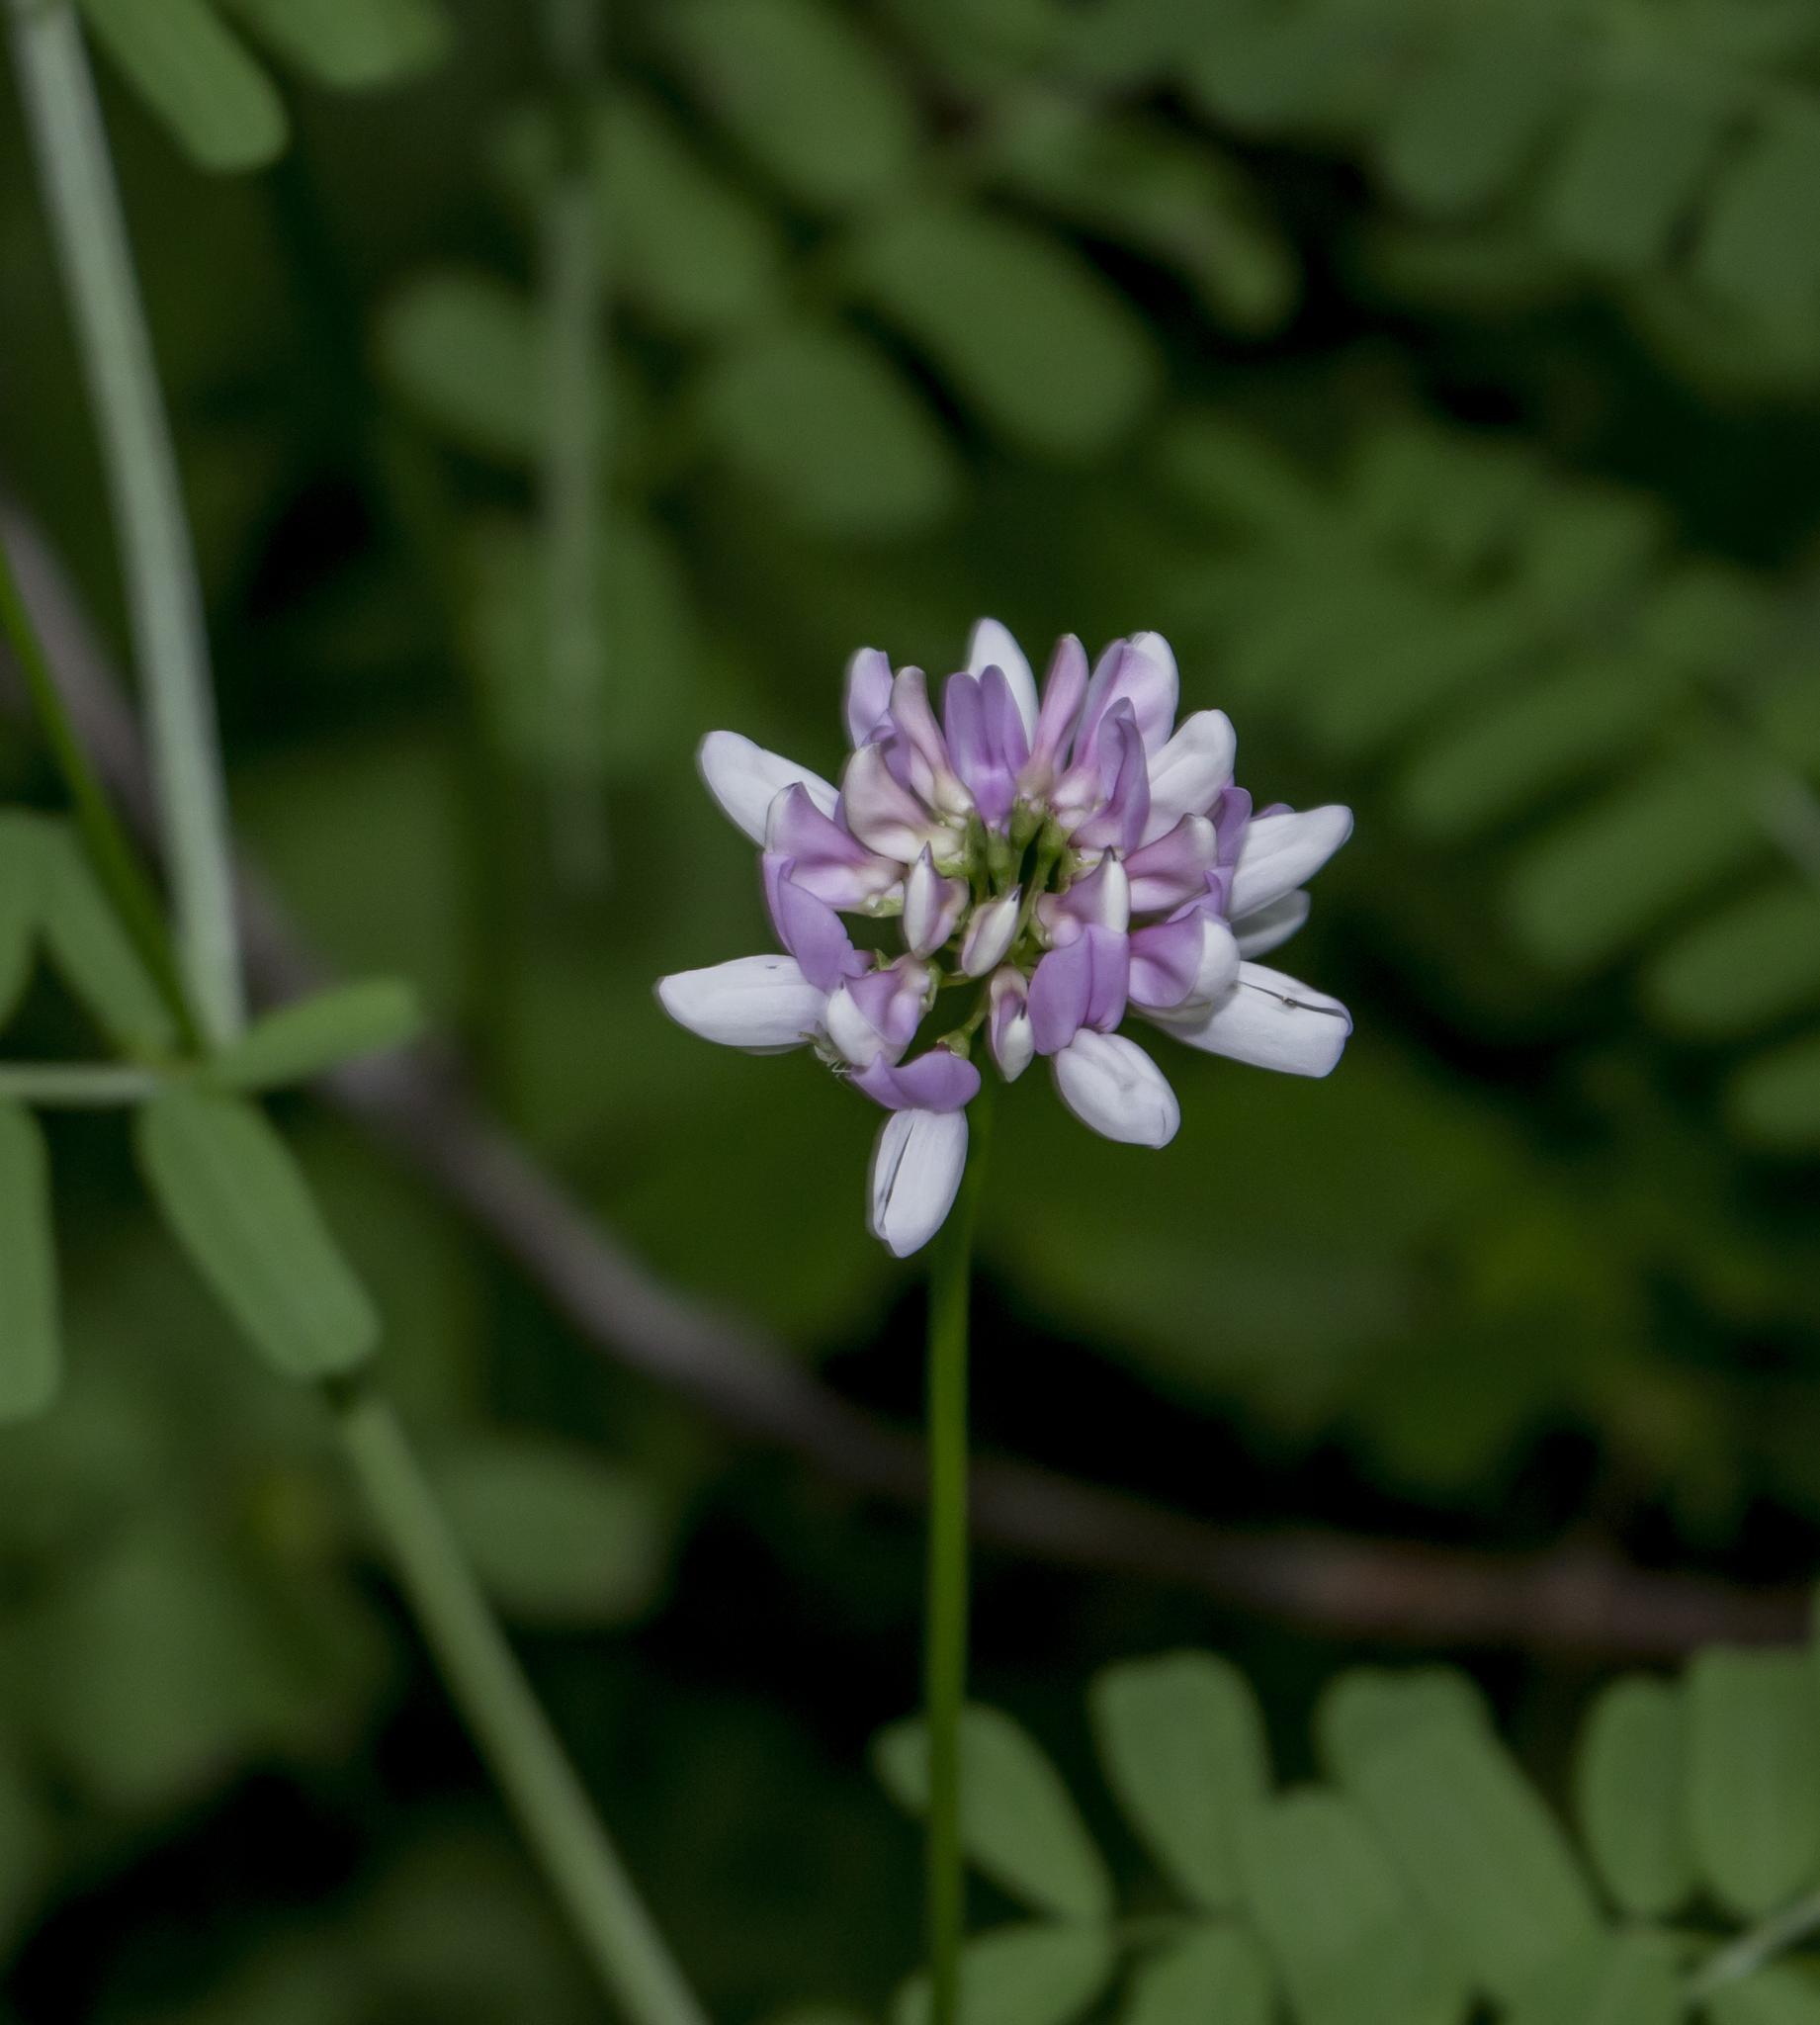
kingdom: Plantae
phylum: Tracheophyta
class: Magnoliopsida
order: Fabales
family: Fabaceae
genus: Coronilla
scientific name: Coronilla varia
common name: Crownvetch
